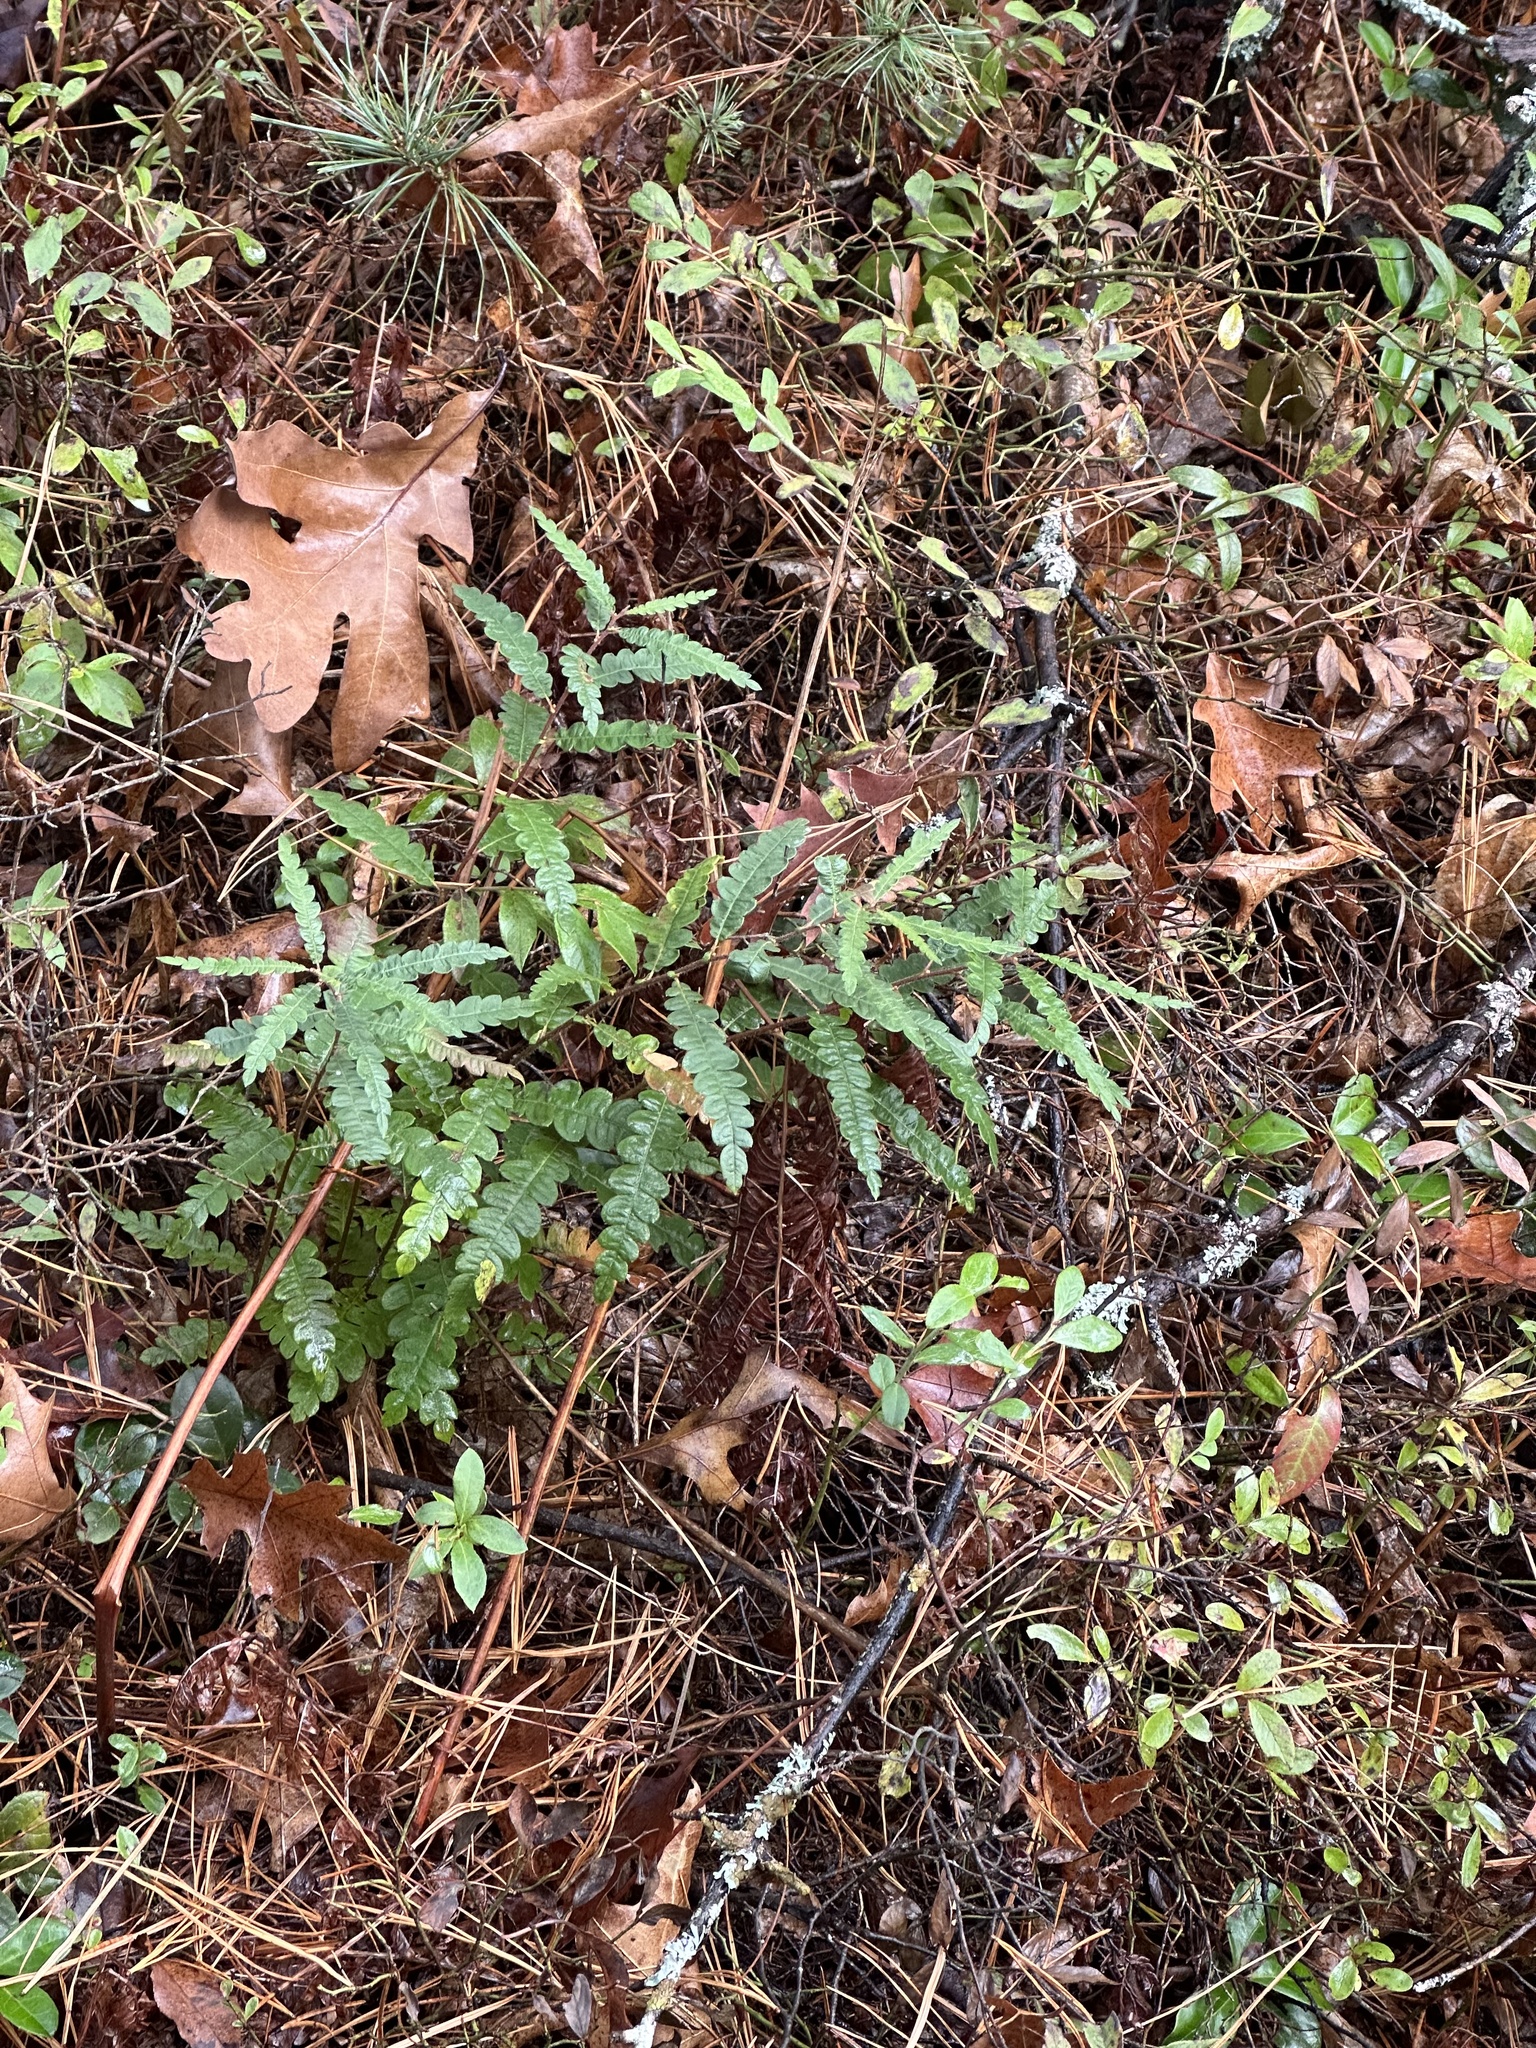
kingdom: Plantae
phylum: Tracheophyta
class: Magnoliopsida
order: Fagales
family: Myricaceae
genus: Comptonia
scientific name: Comptonia peregrina
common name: Sweet-fern
